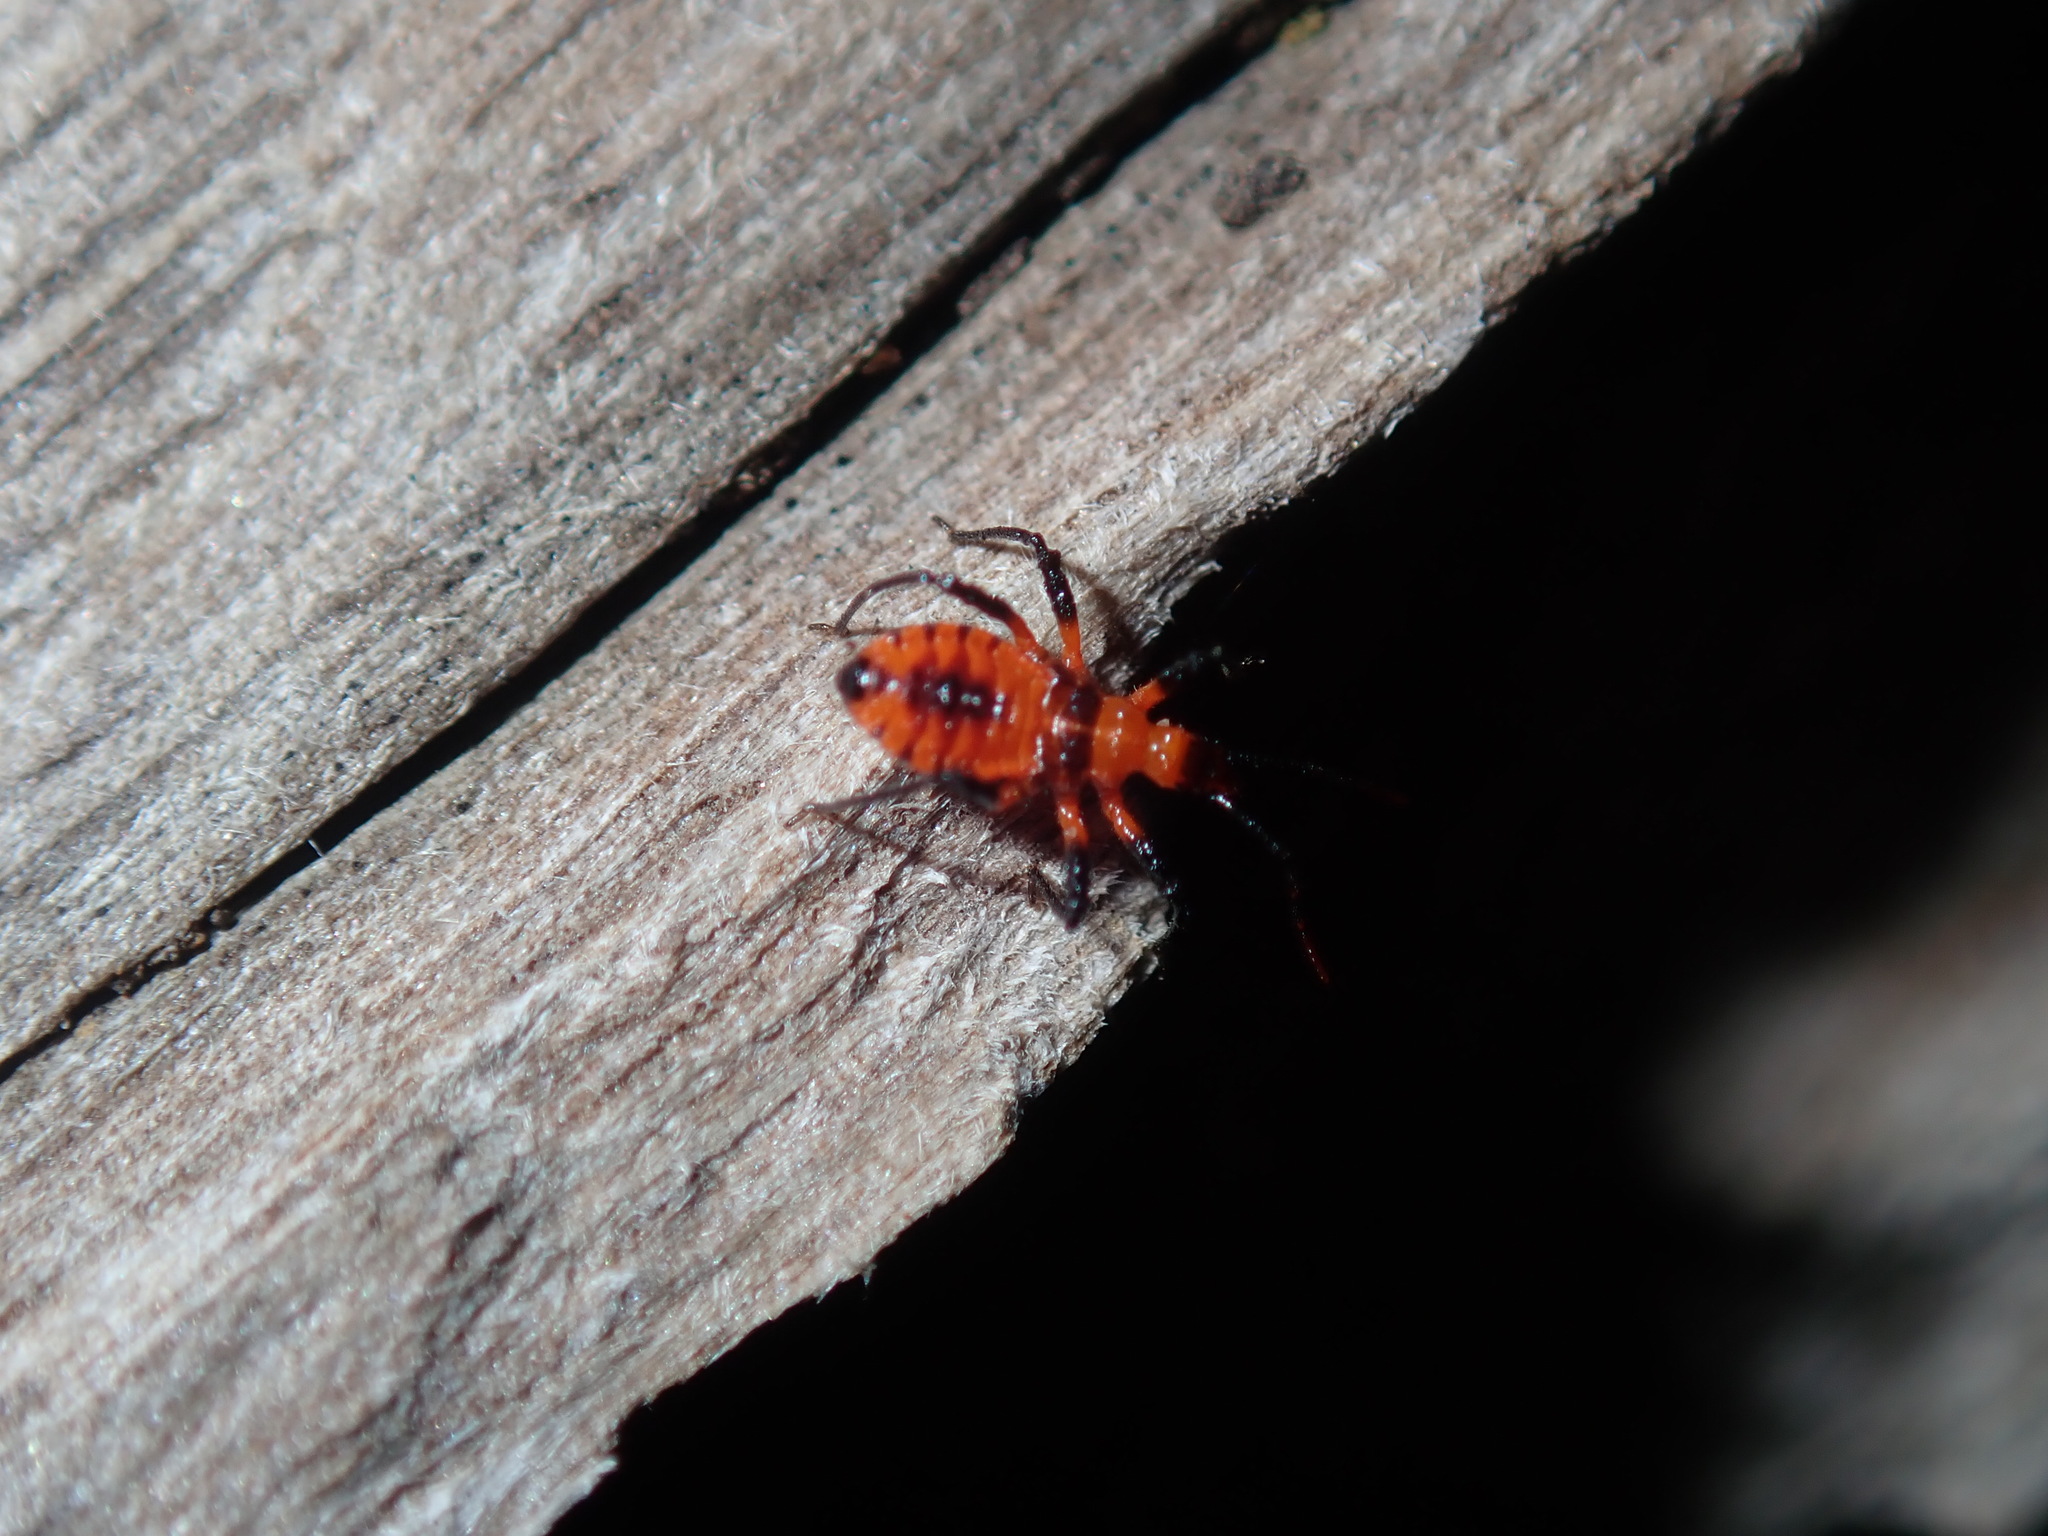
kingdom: Animalia
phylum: Arthropoda
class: Insecta
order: Hemiptera
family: Reduviidae
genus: Tegea
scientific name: Tegea atropicta
